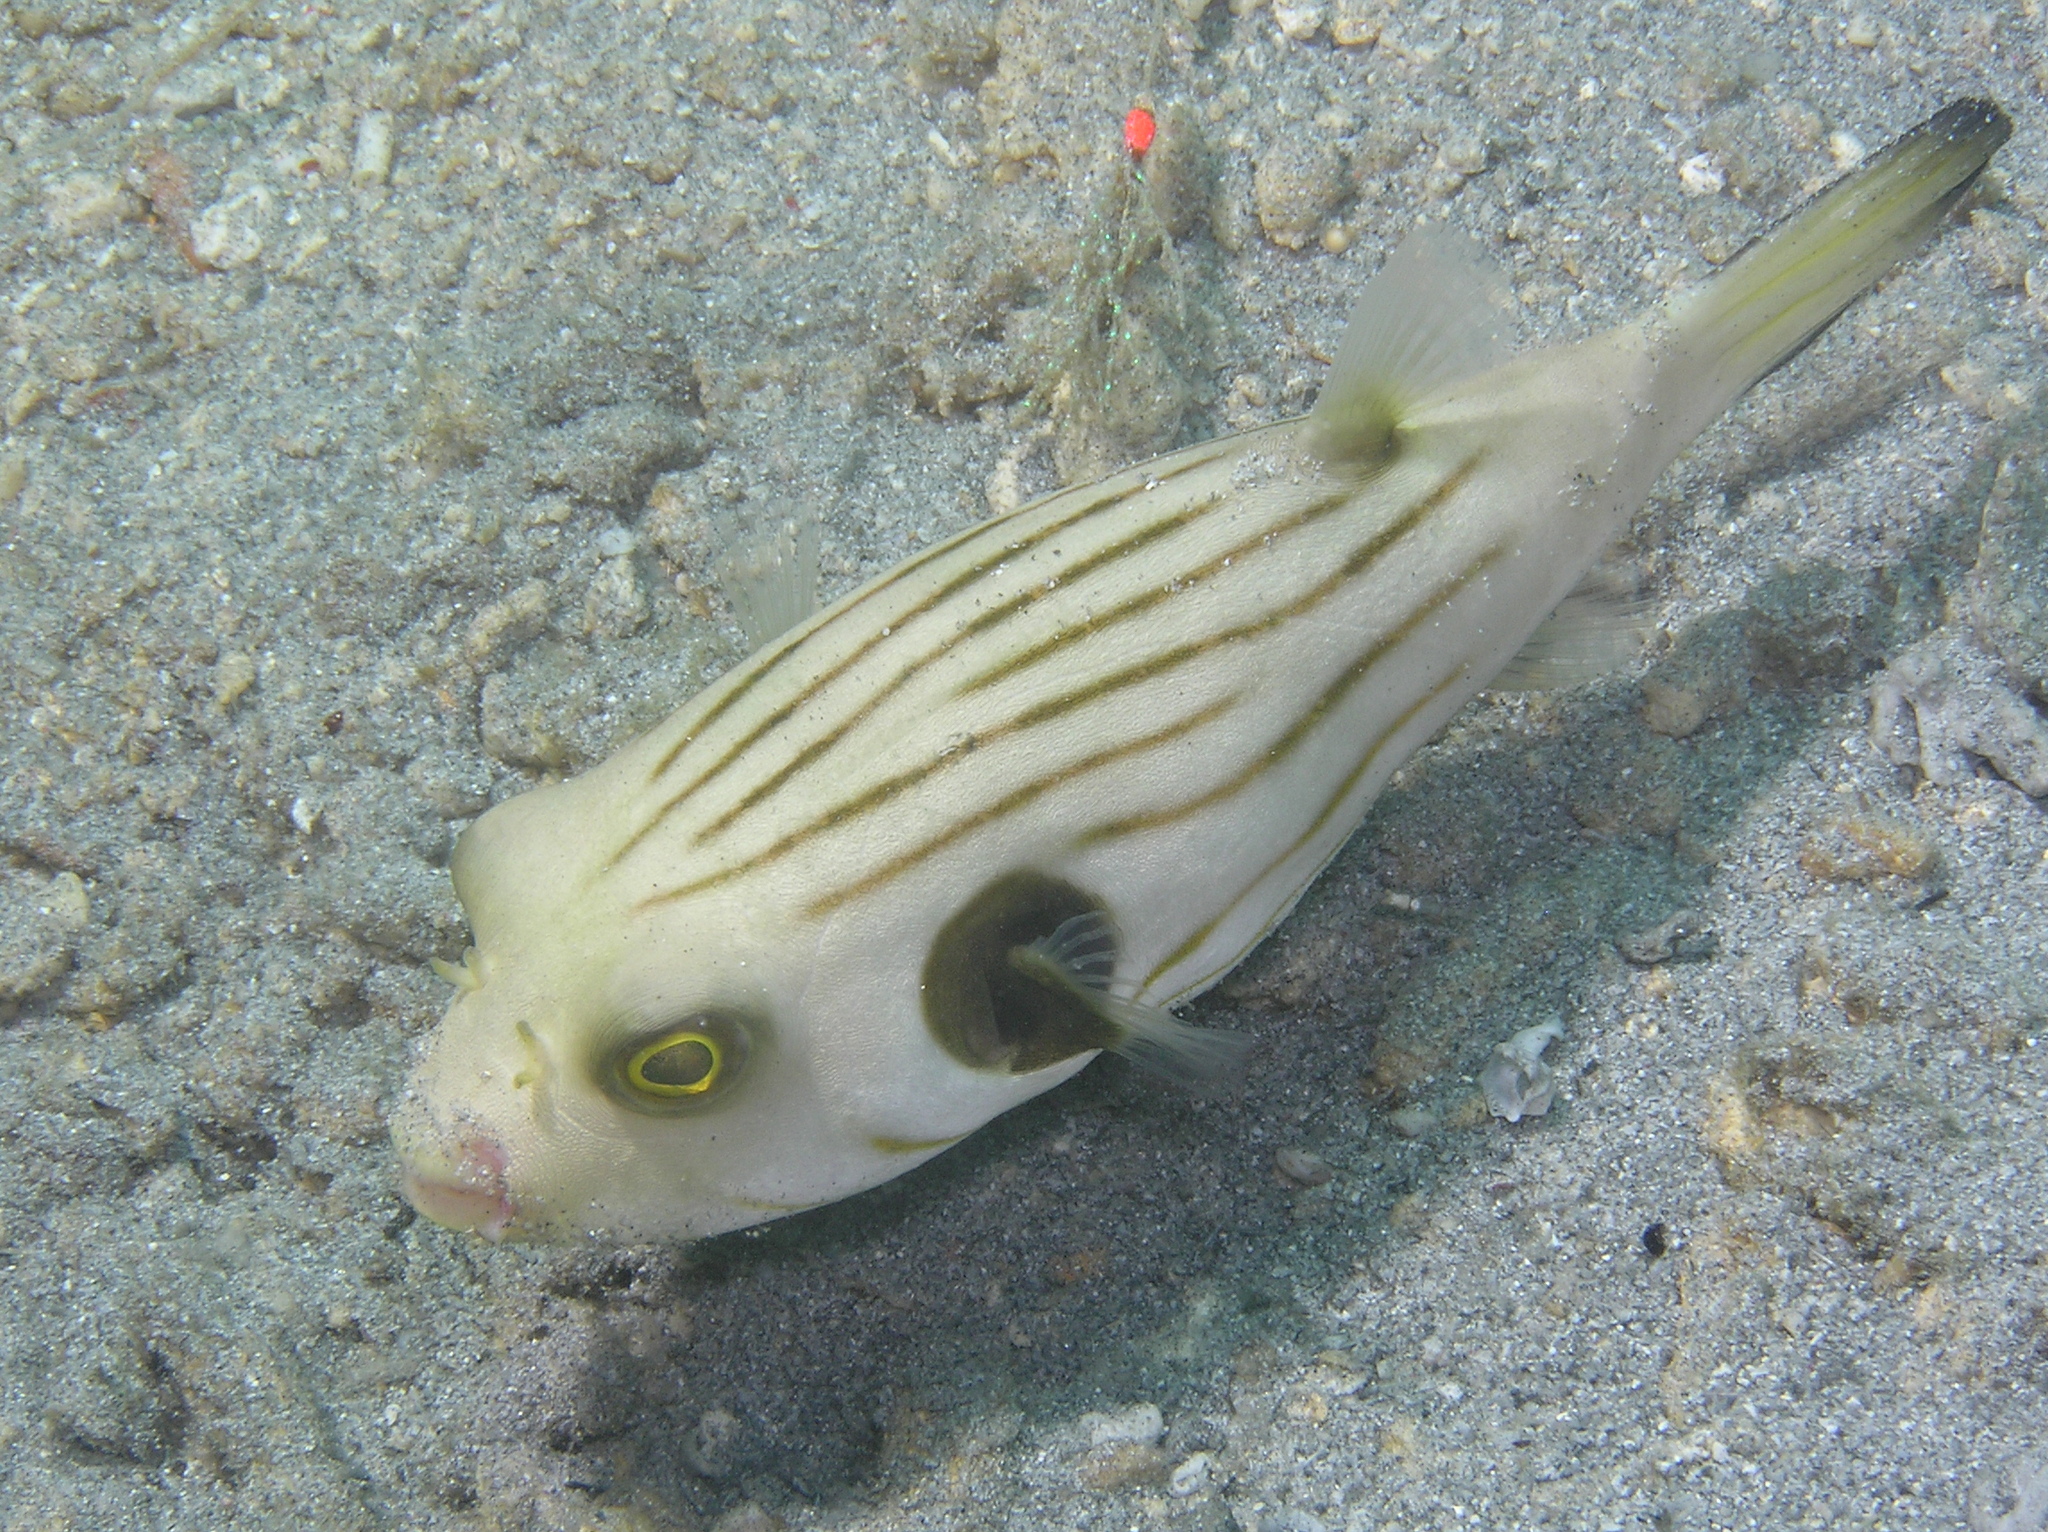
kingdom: Animalia
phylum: Chordata
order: Tetraodontiformes
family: Tetraodontidae
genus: Arothron
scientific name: Arothron manilensis
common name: Narrow-lined puffer
